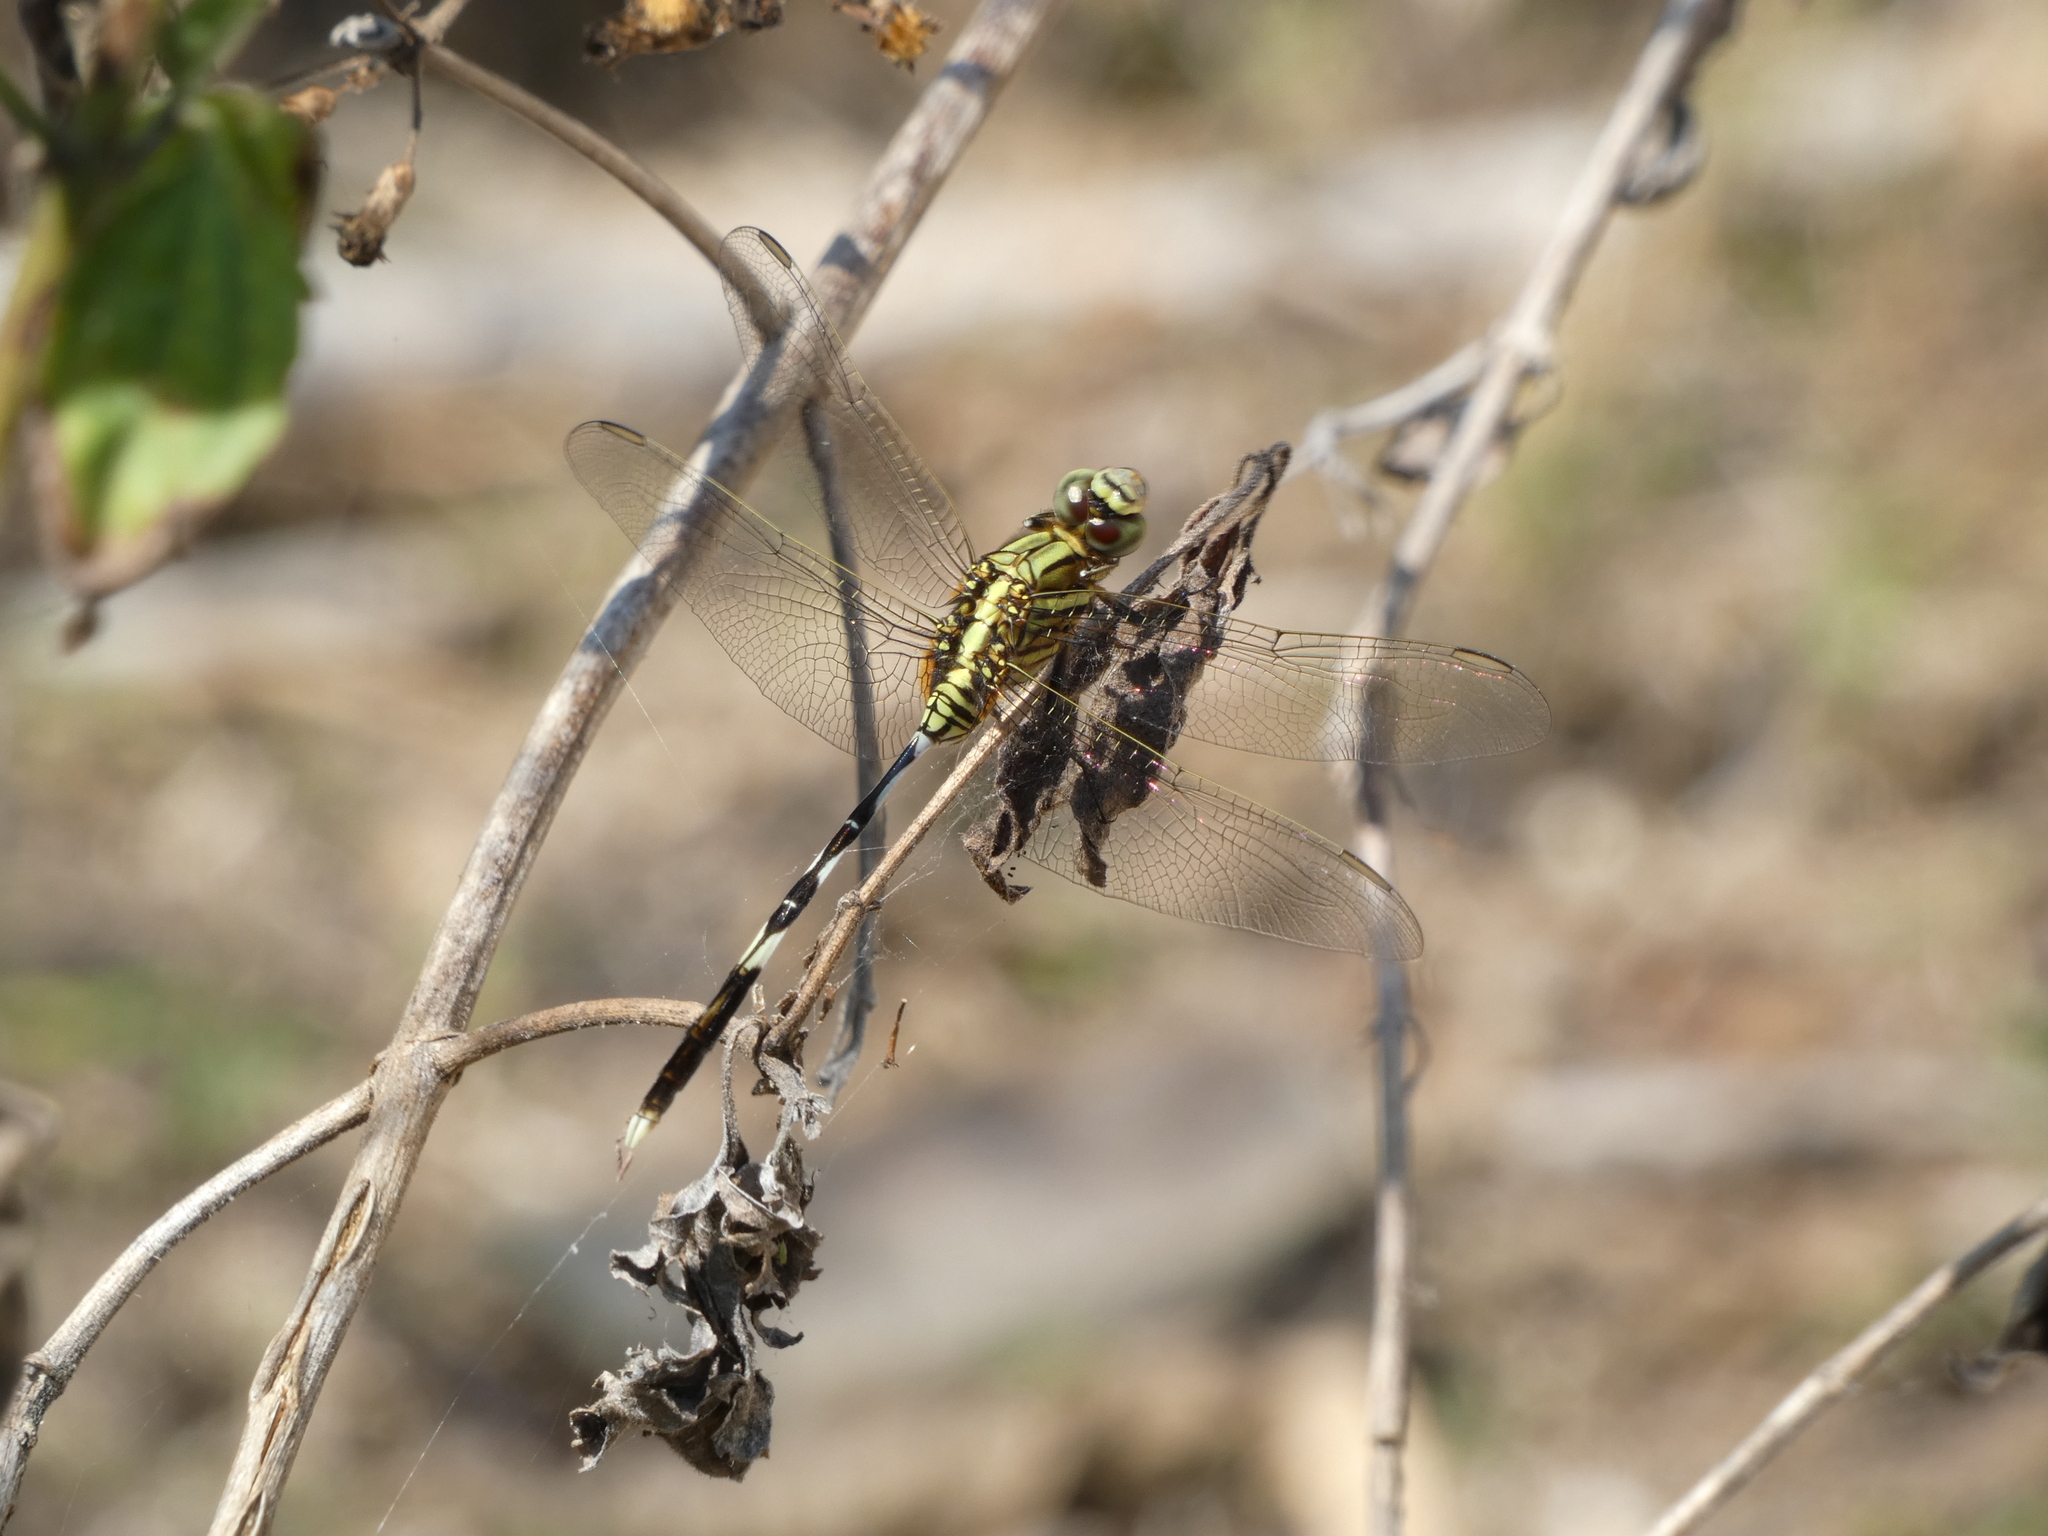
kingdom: Animalia
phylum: Arthropoda
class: Insecta
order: Odonata
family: Libellulidae
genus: Orthetrum
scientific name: Orthetrum sabina
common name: Slender skimmer
